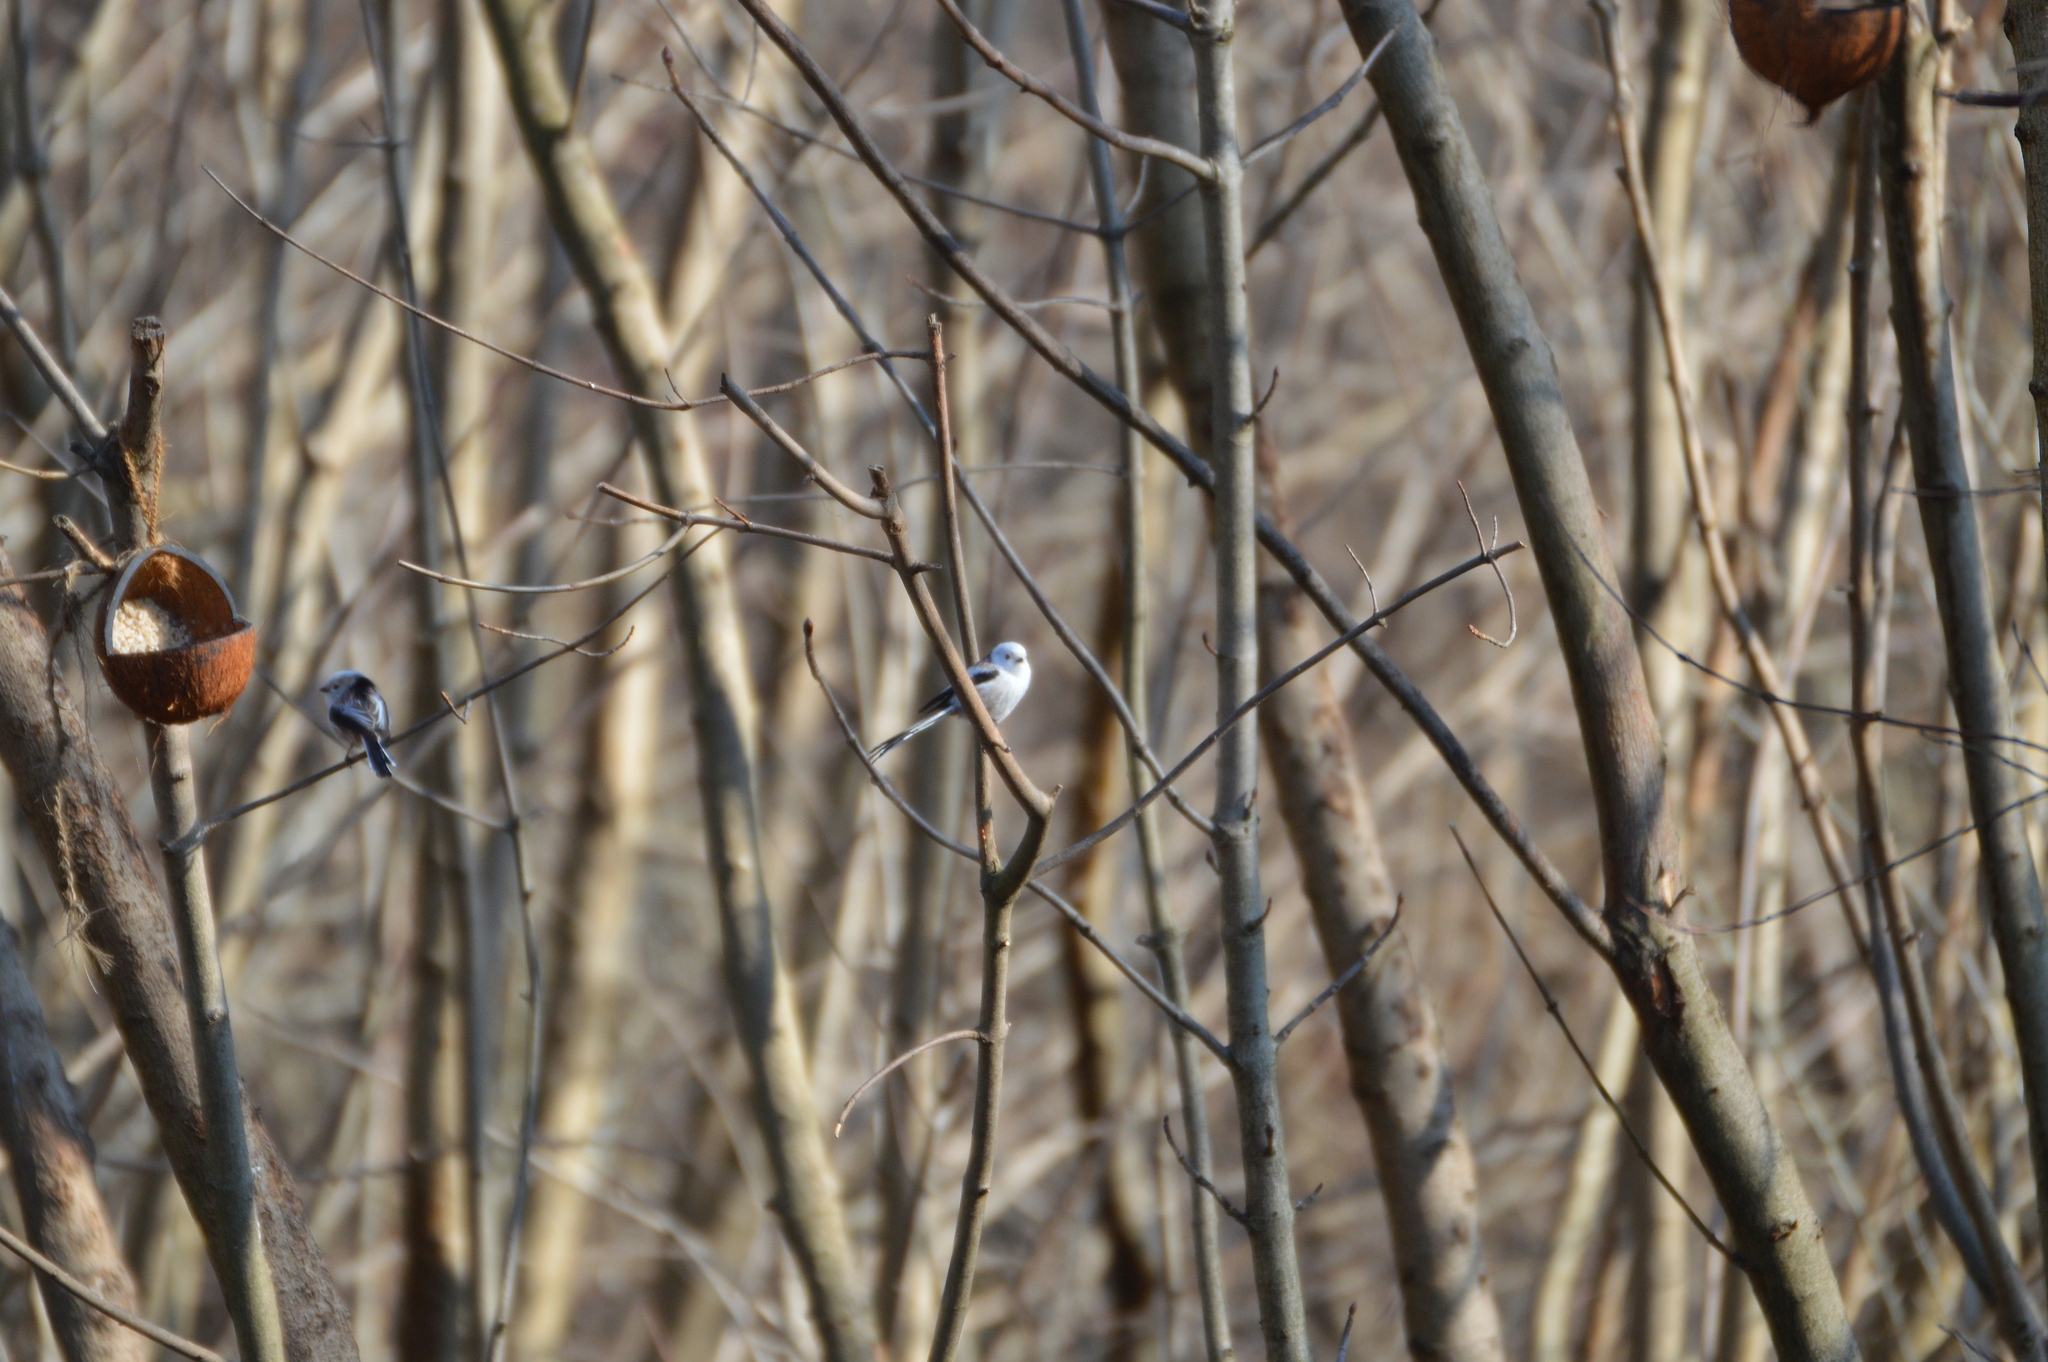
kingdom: Animalia
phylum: Chordata
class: Aves
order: Passeriformes
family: Aegithalidae
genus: Aegithalos
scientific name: Aegithalos caudatus
